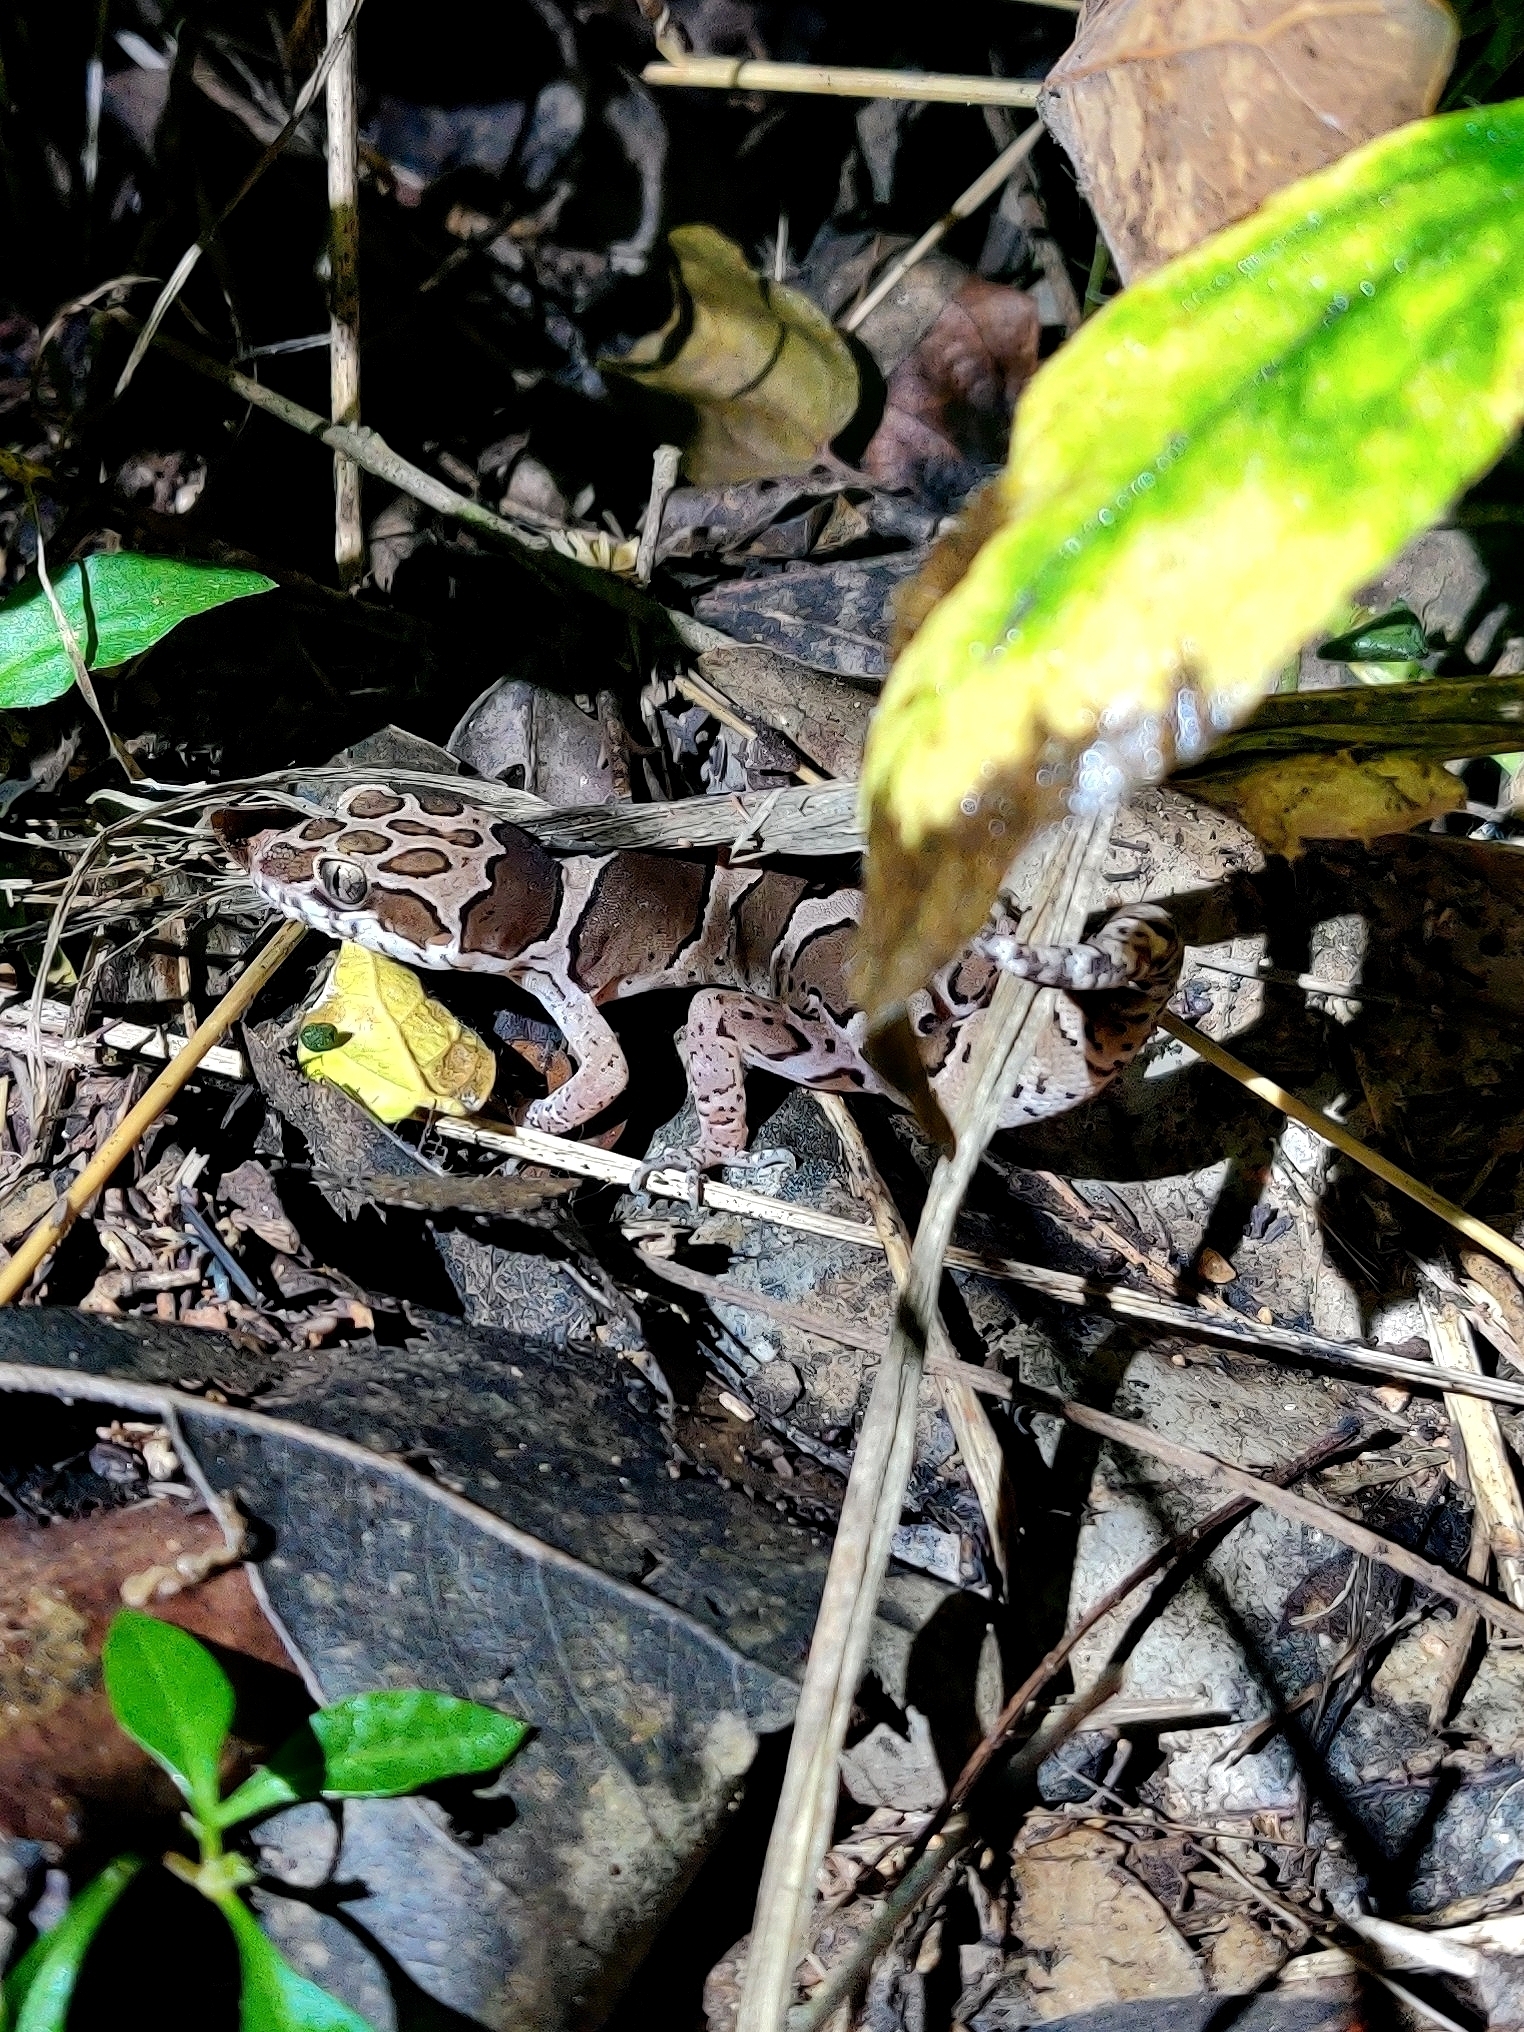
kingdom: Animalia
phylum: Chordata
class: Squamata
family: Gekkonidae
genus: Cyrtodactylus
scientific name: Cyrtodactylus collegalensis
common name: Forest spotted gecko
